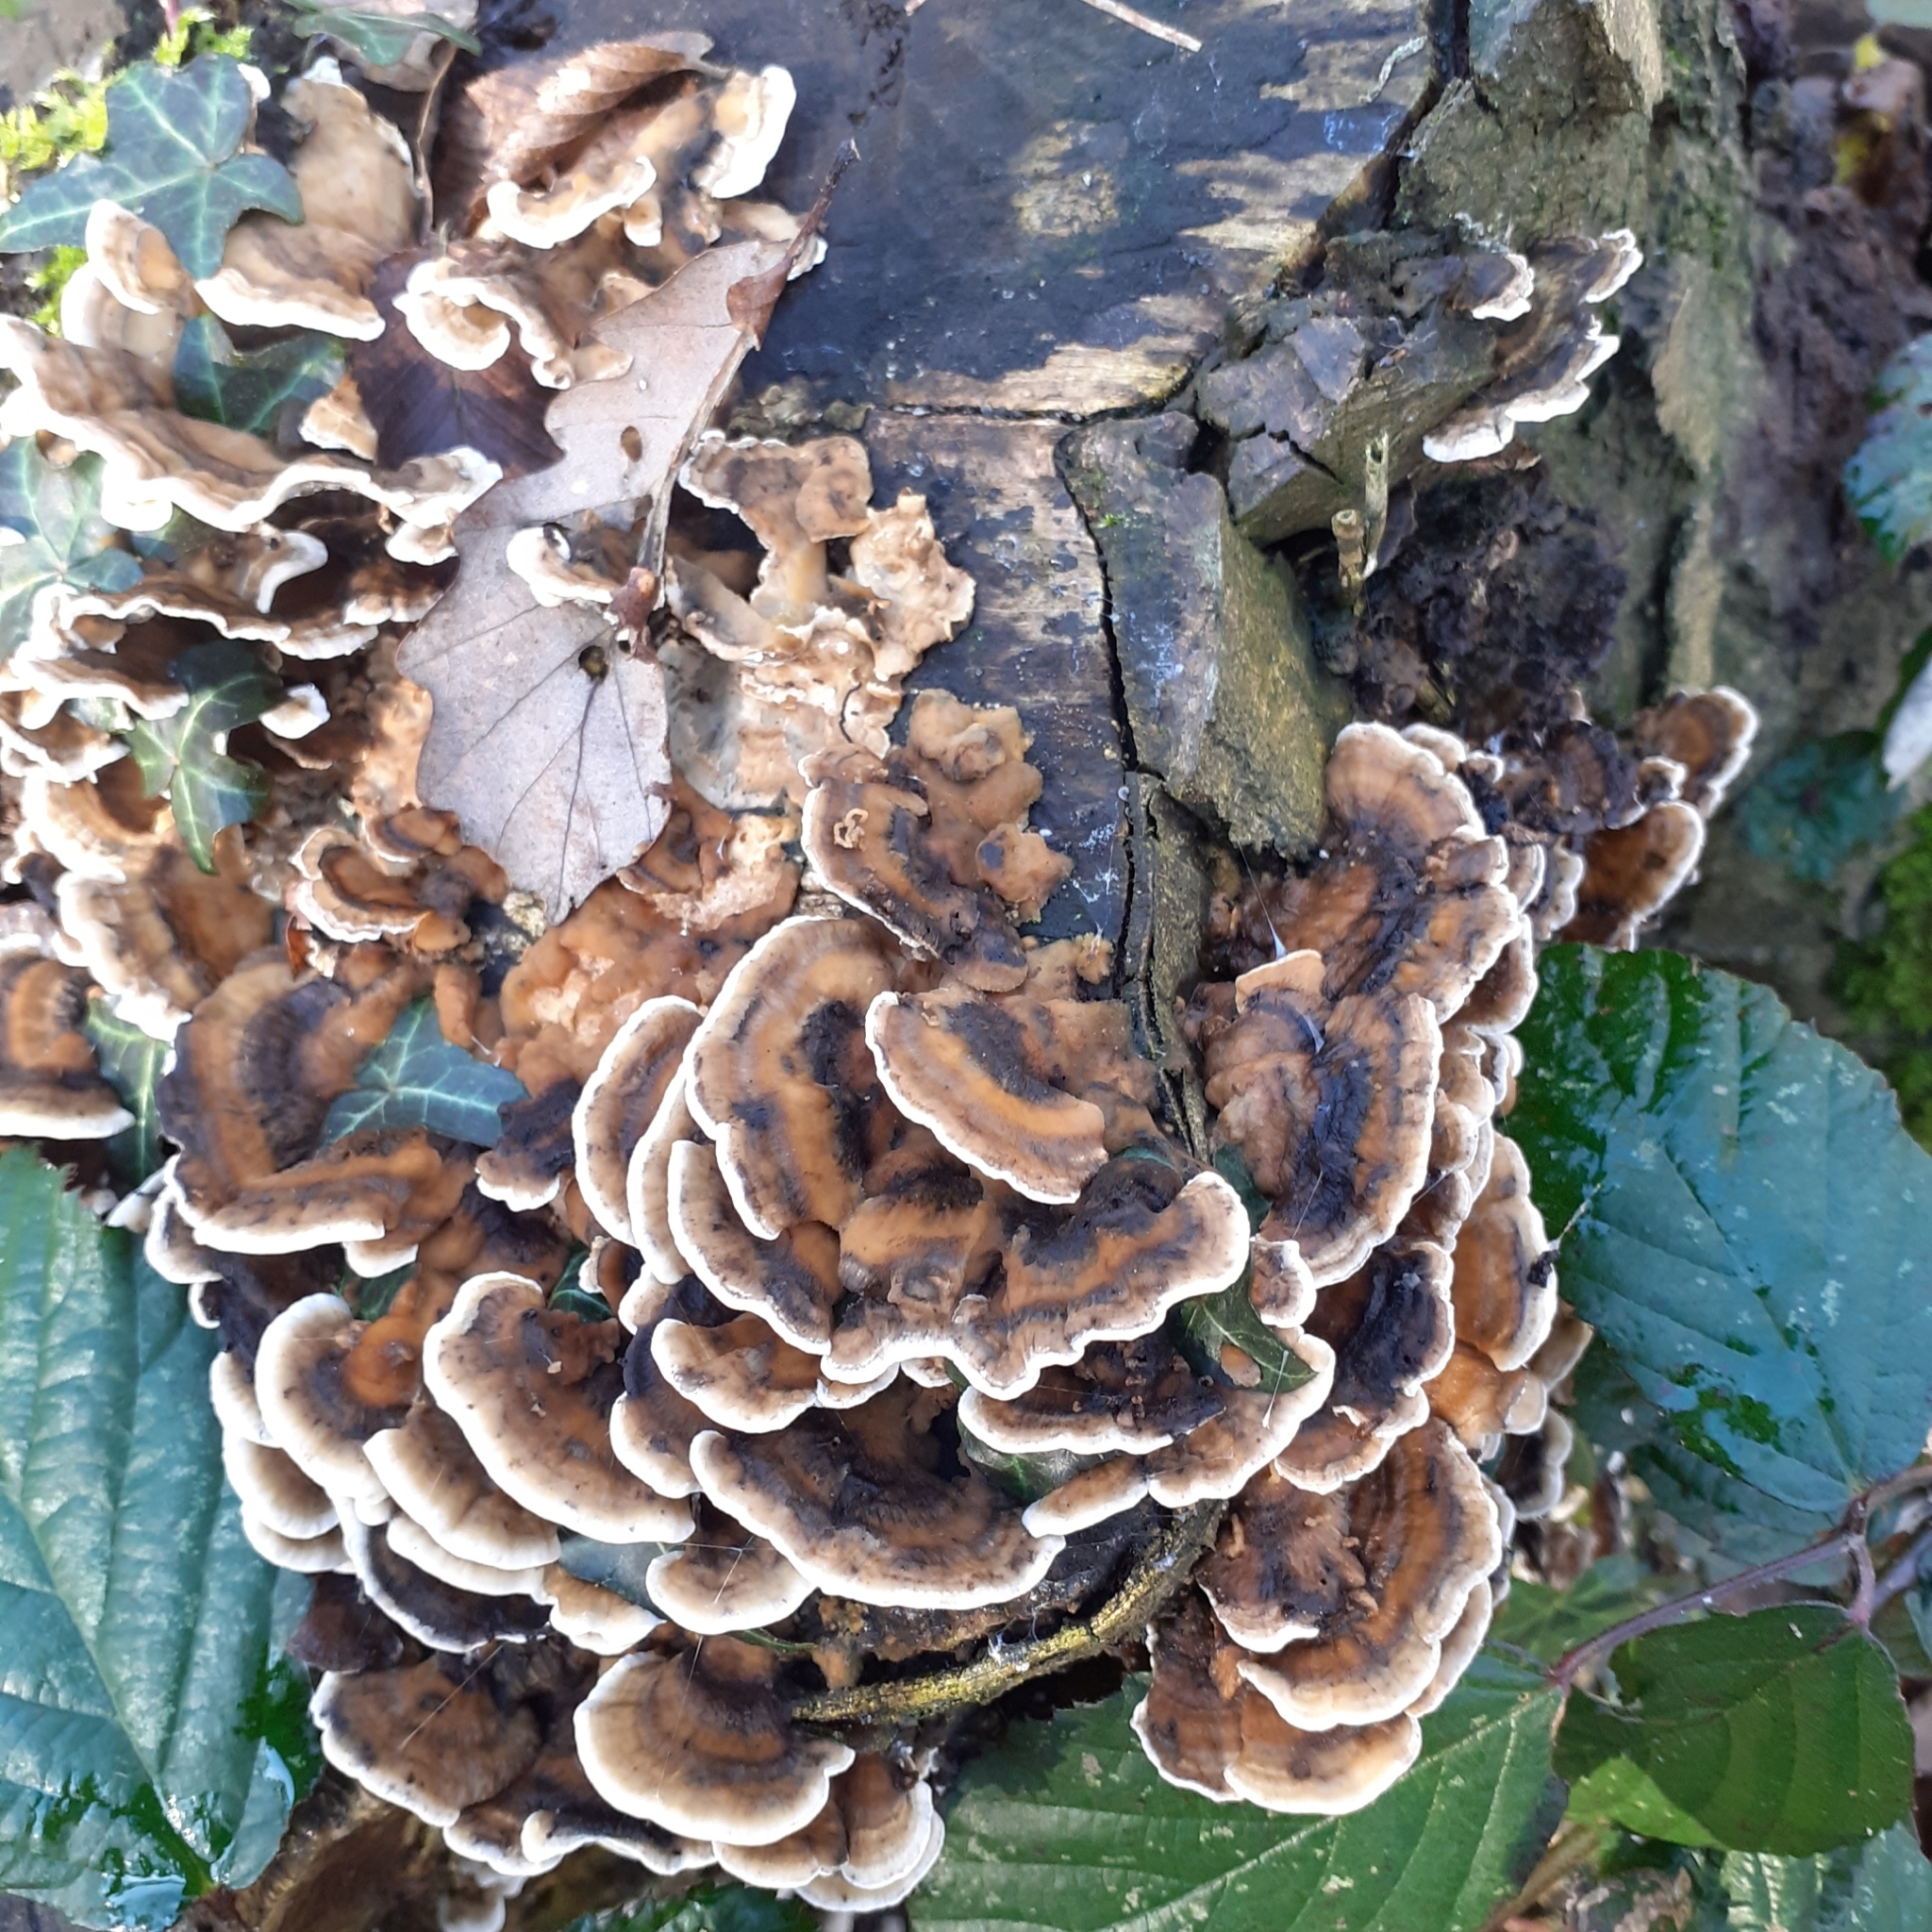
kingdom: Fungi
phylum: Basidiomycota
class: Agaricomycetes
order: Polyporales
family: Phanerochaetaceae
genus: Bjerkandera
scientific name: Bjerkandera adusta
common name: Smoky bracket
